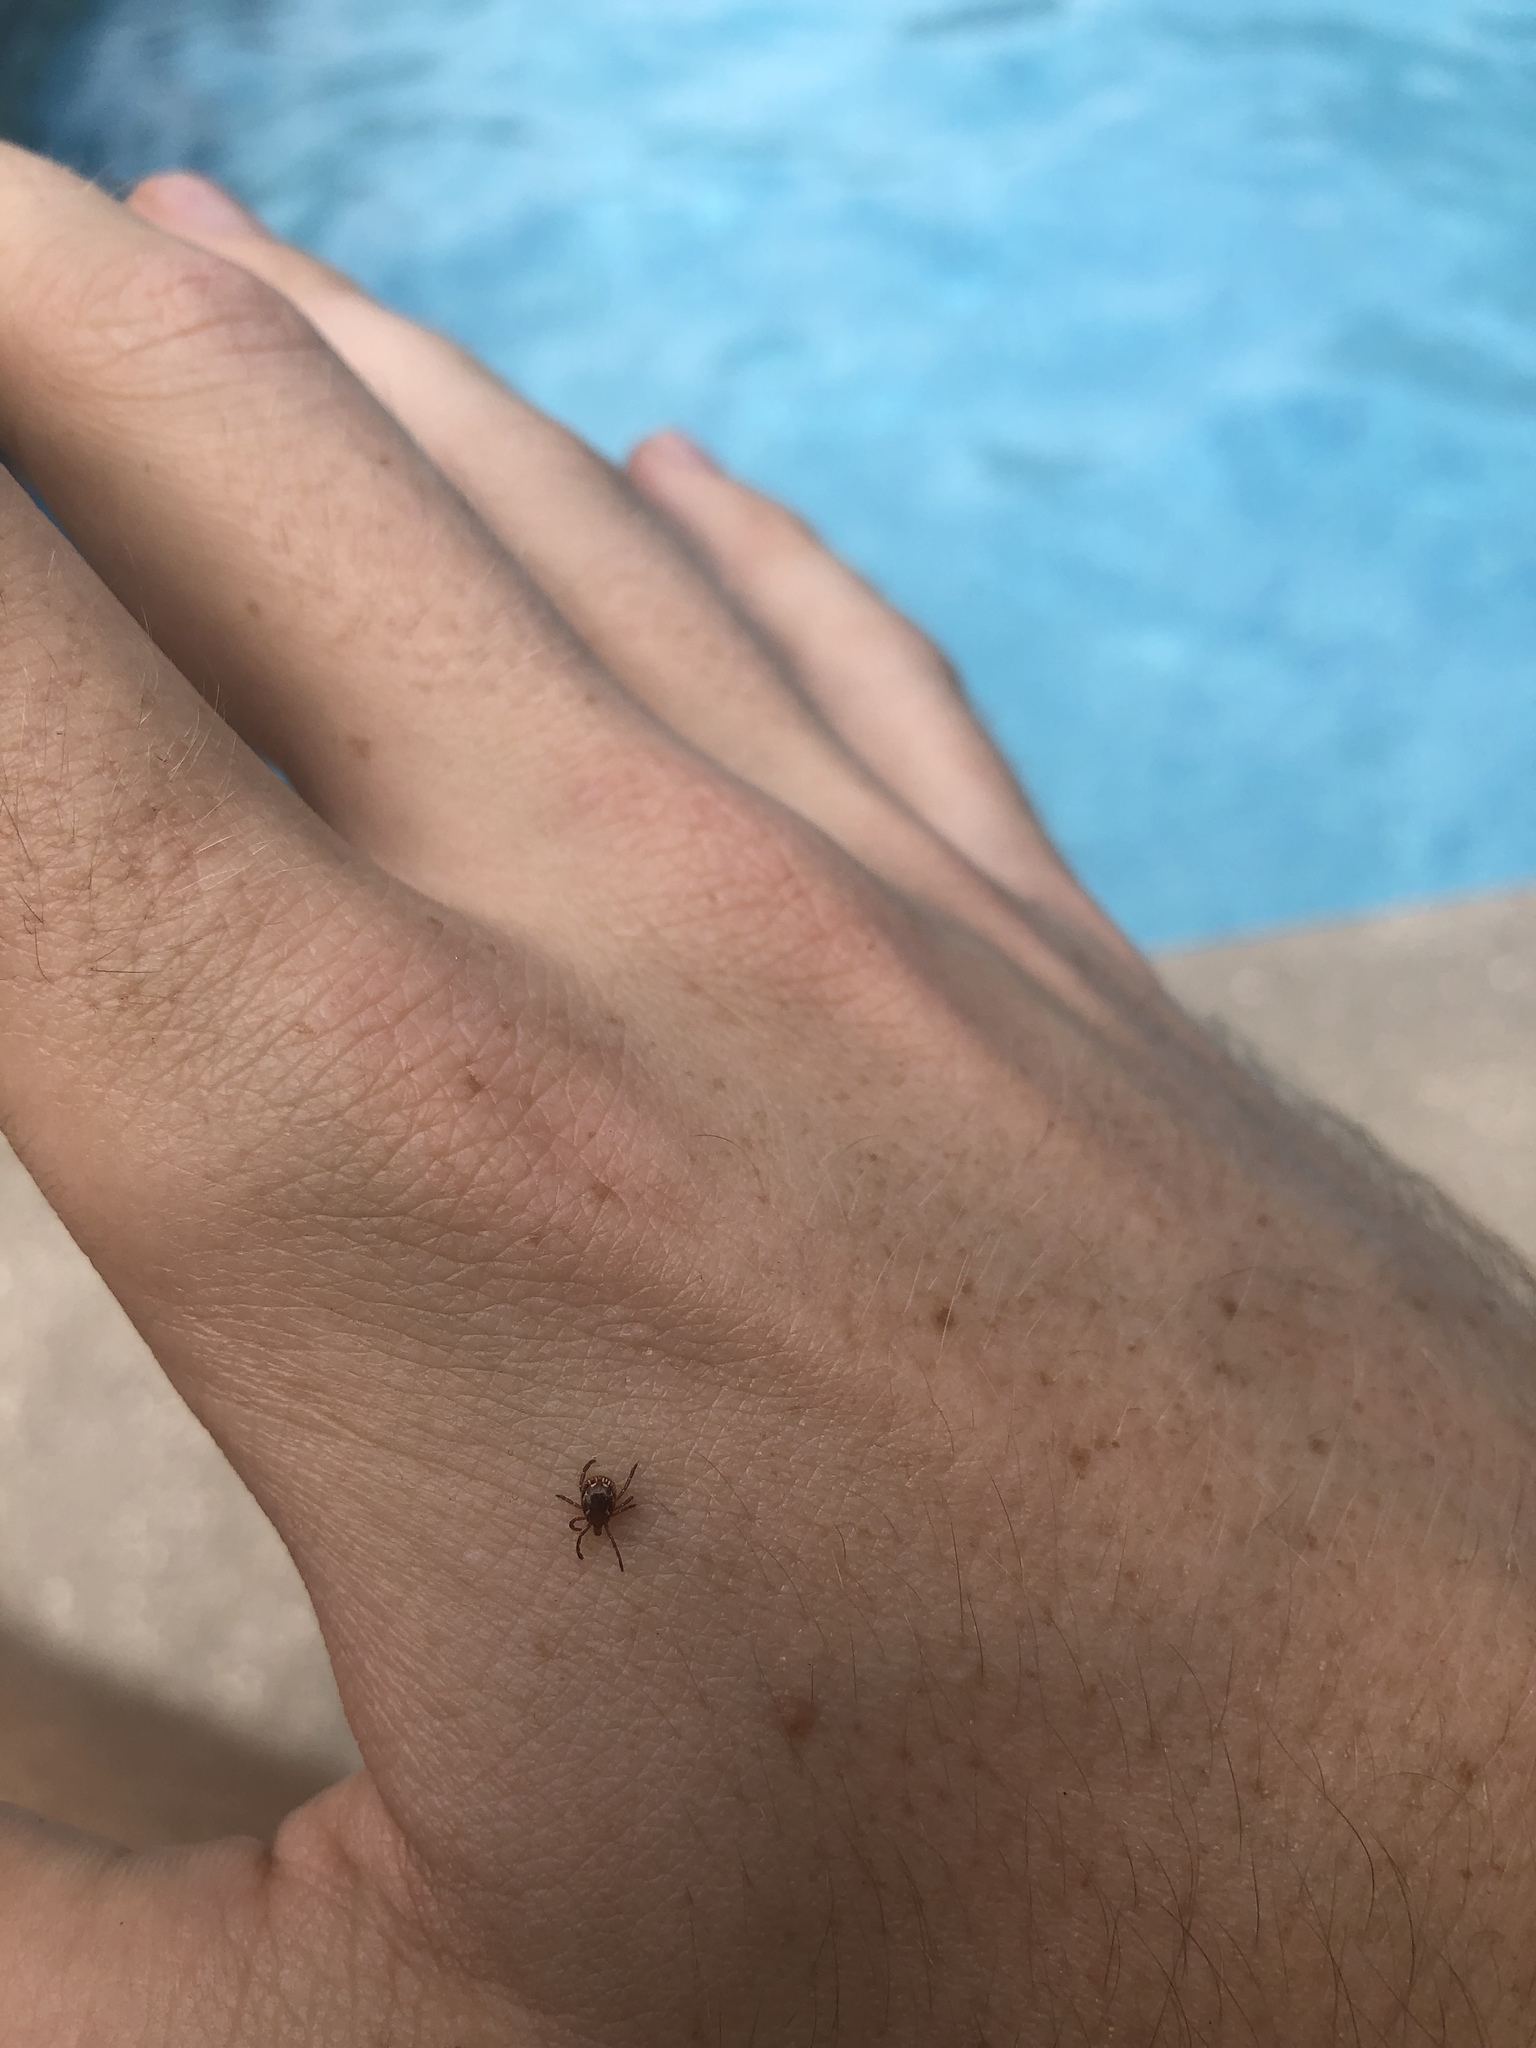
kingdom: Animalia
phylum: Arthropoda
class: Arachnida
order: Ixodida
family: Ixodidae
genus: Amblyomma
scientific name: Amblyomma americanum
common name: Lone star tick
